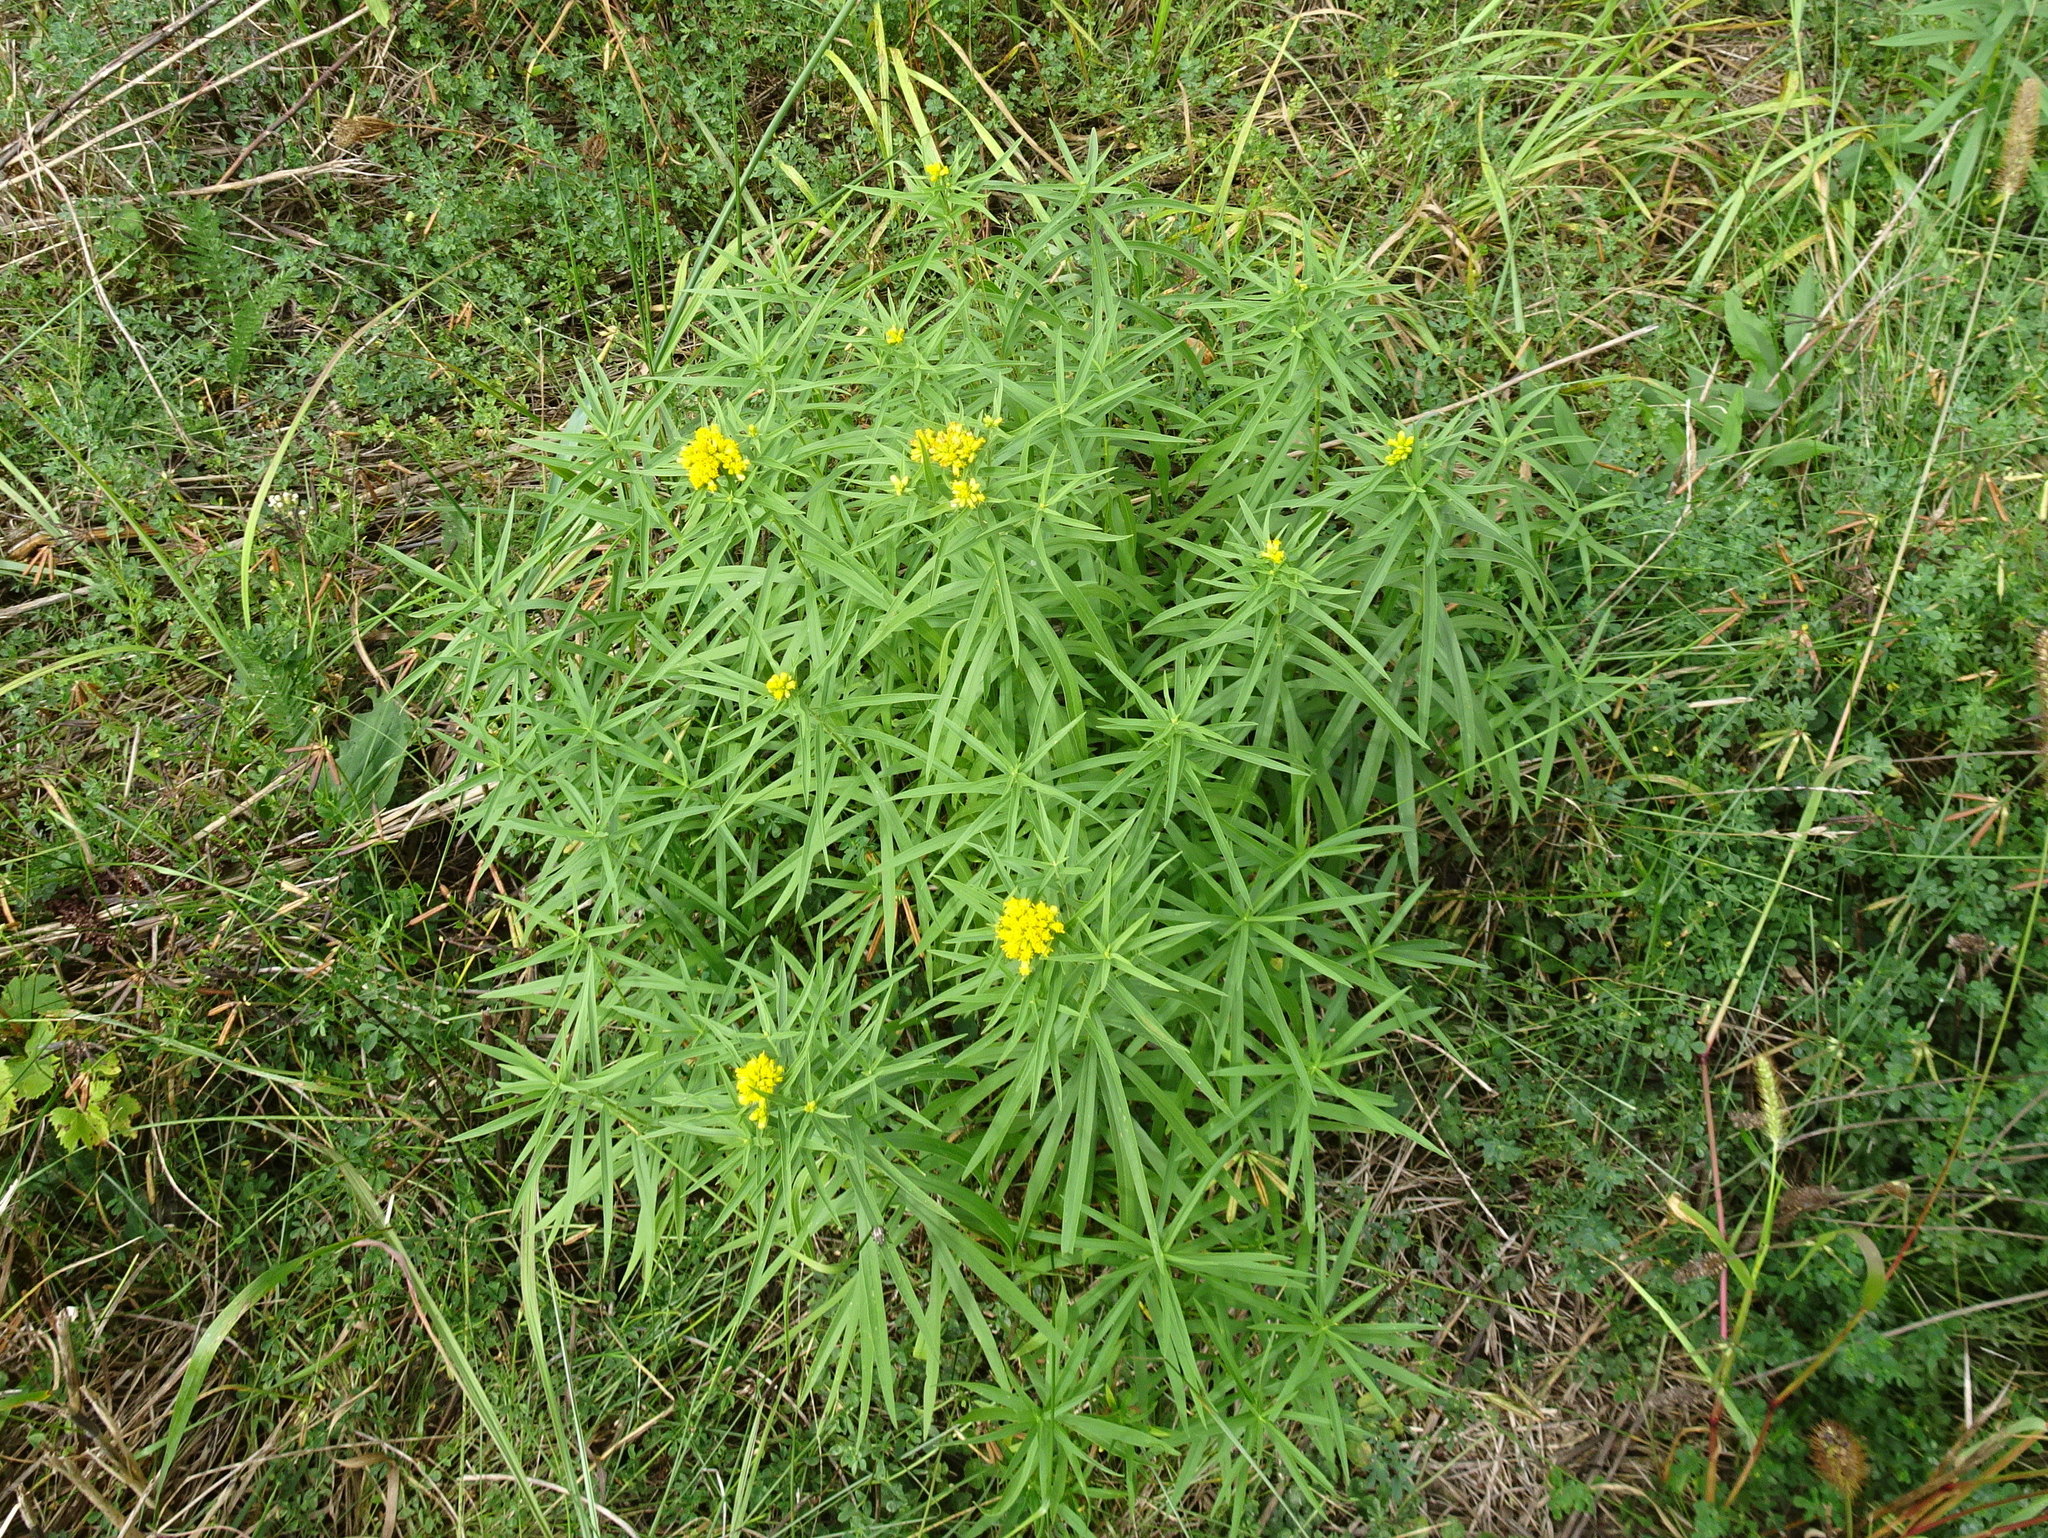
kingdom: Plantae
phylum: Tracheophyta
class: Magnoliopsida
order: Asterales
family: Asteraceae
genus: Euthamia
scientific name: Euthamia graminifolia
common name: Common goldentop
